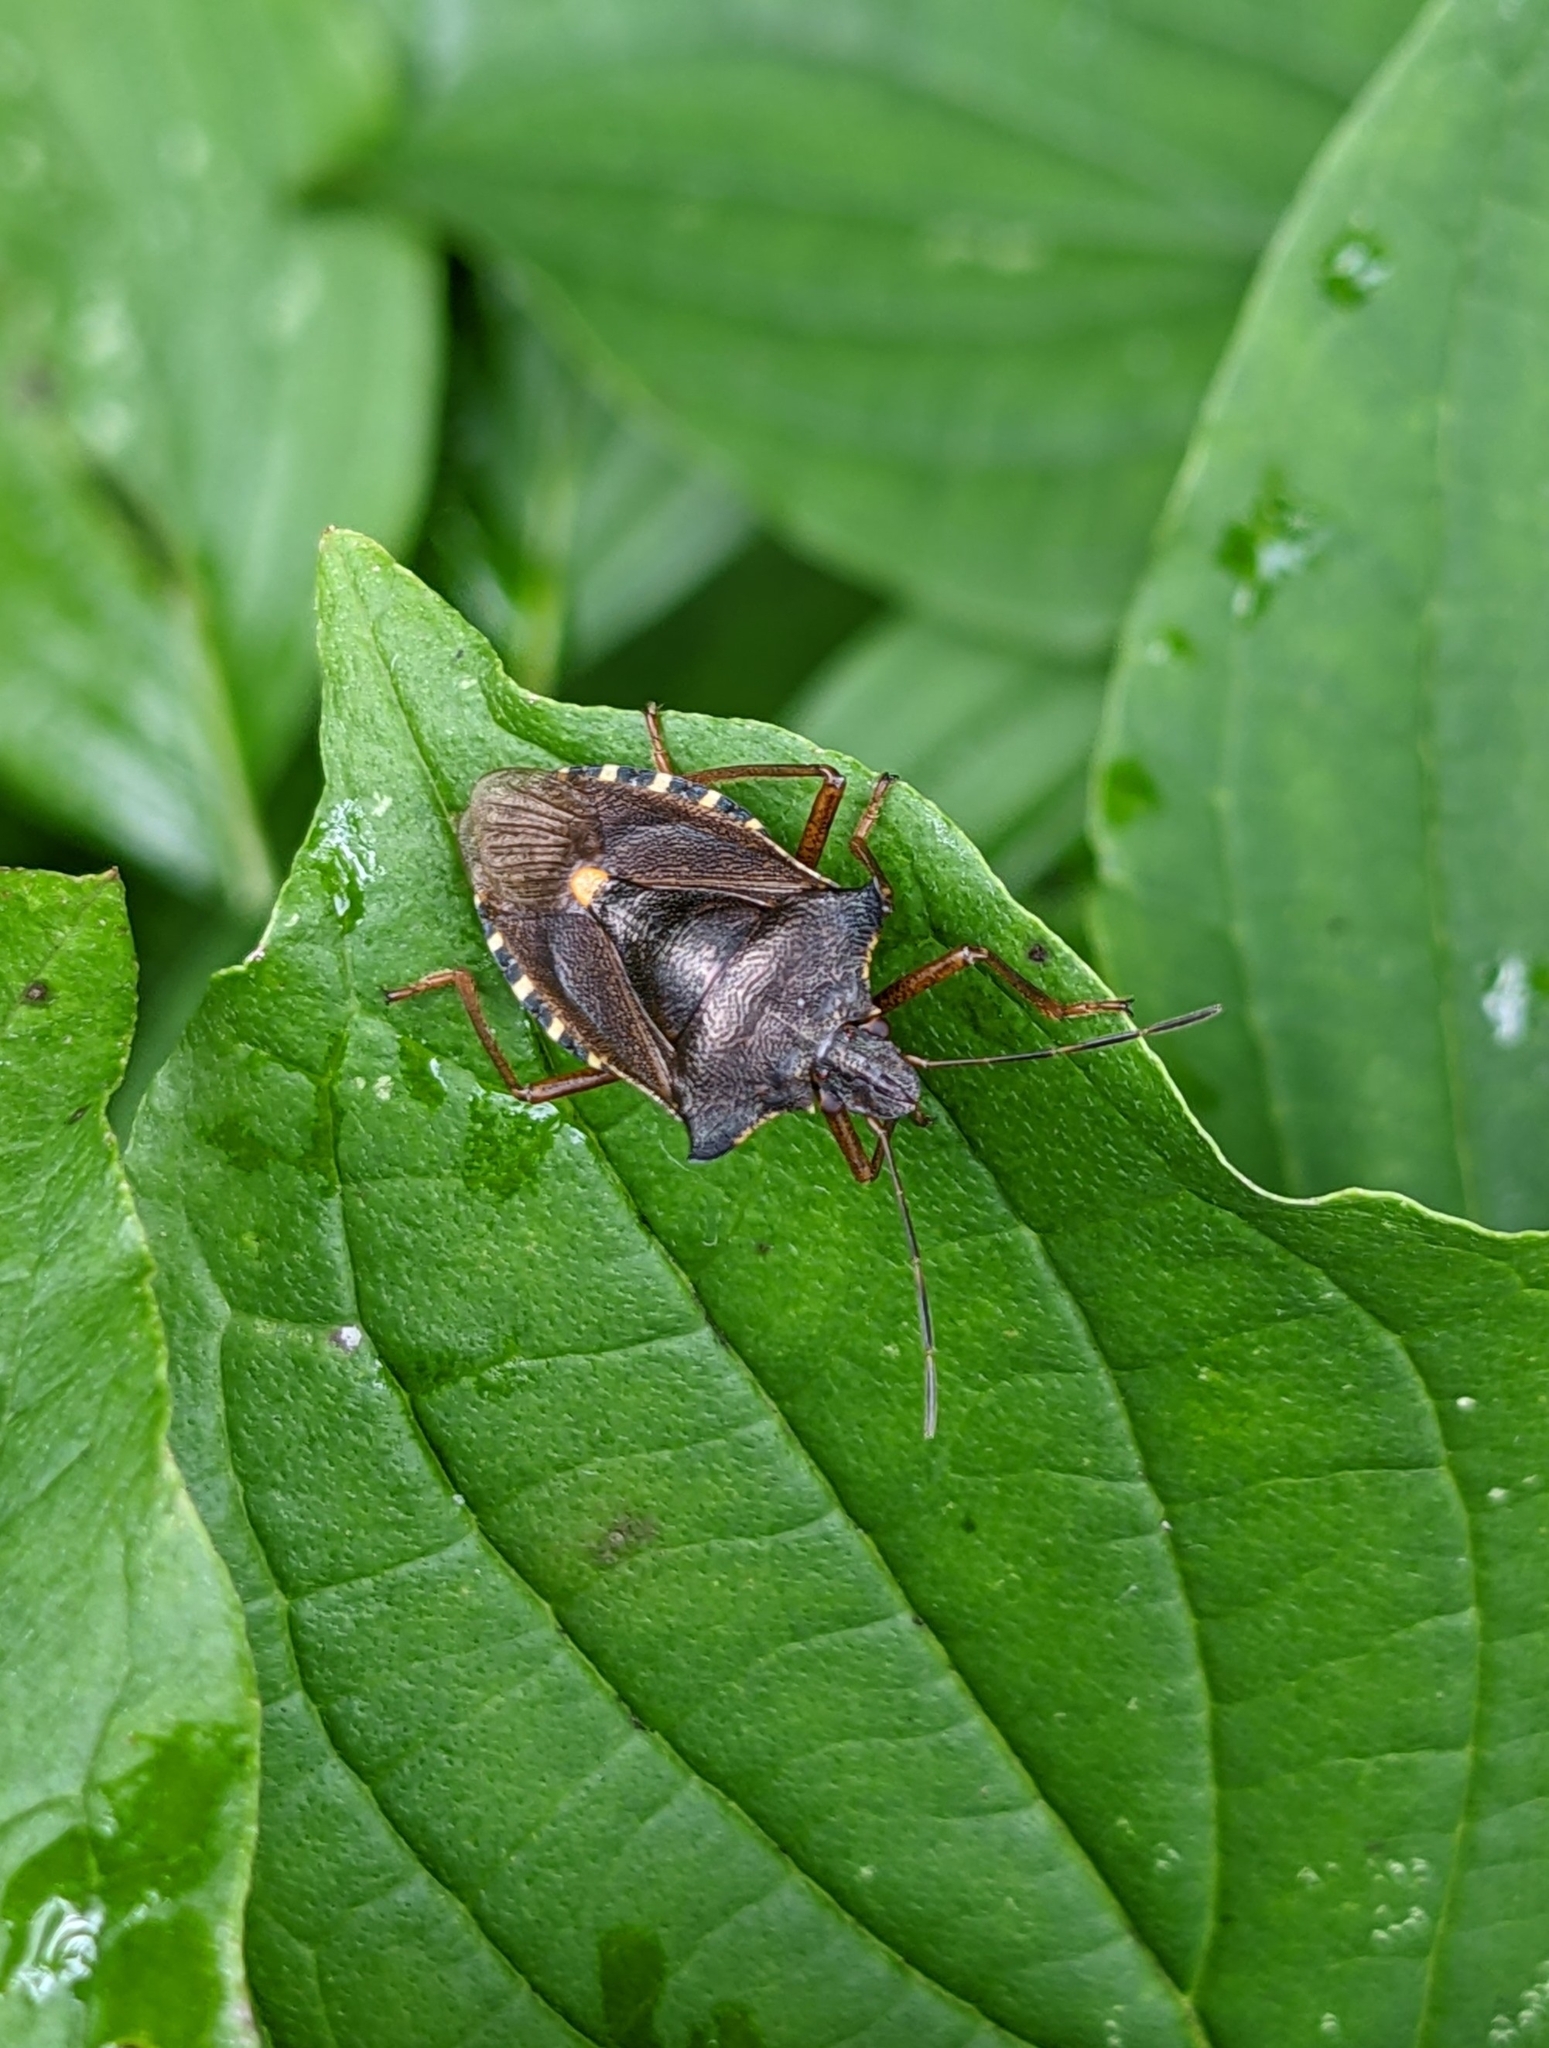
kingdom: Animalia
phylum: Arthropoda
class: Insecta
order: Hemiptera
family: Pentatomidae
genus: Pentatoma
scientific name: Pentatoma rufipes
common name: Forest bug
